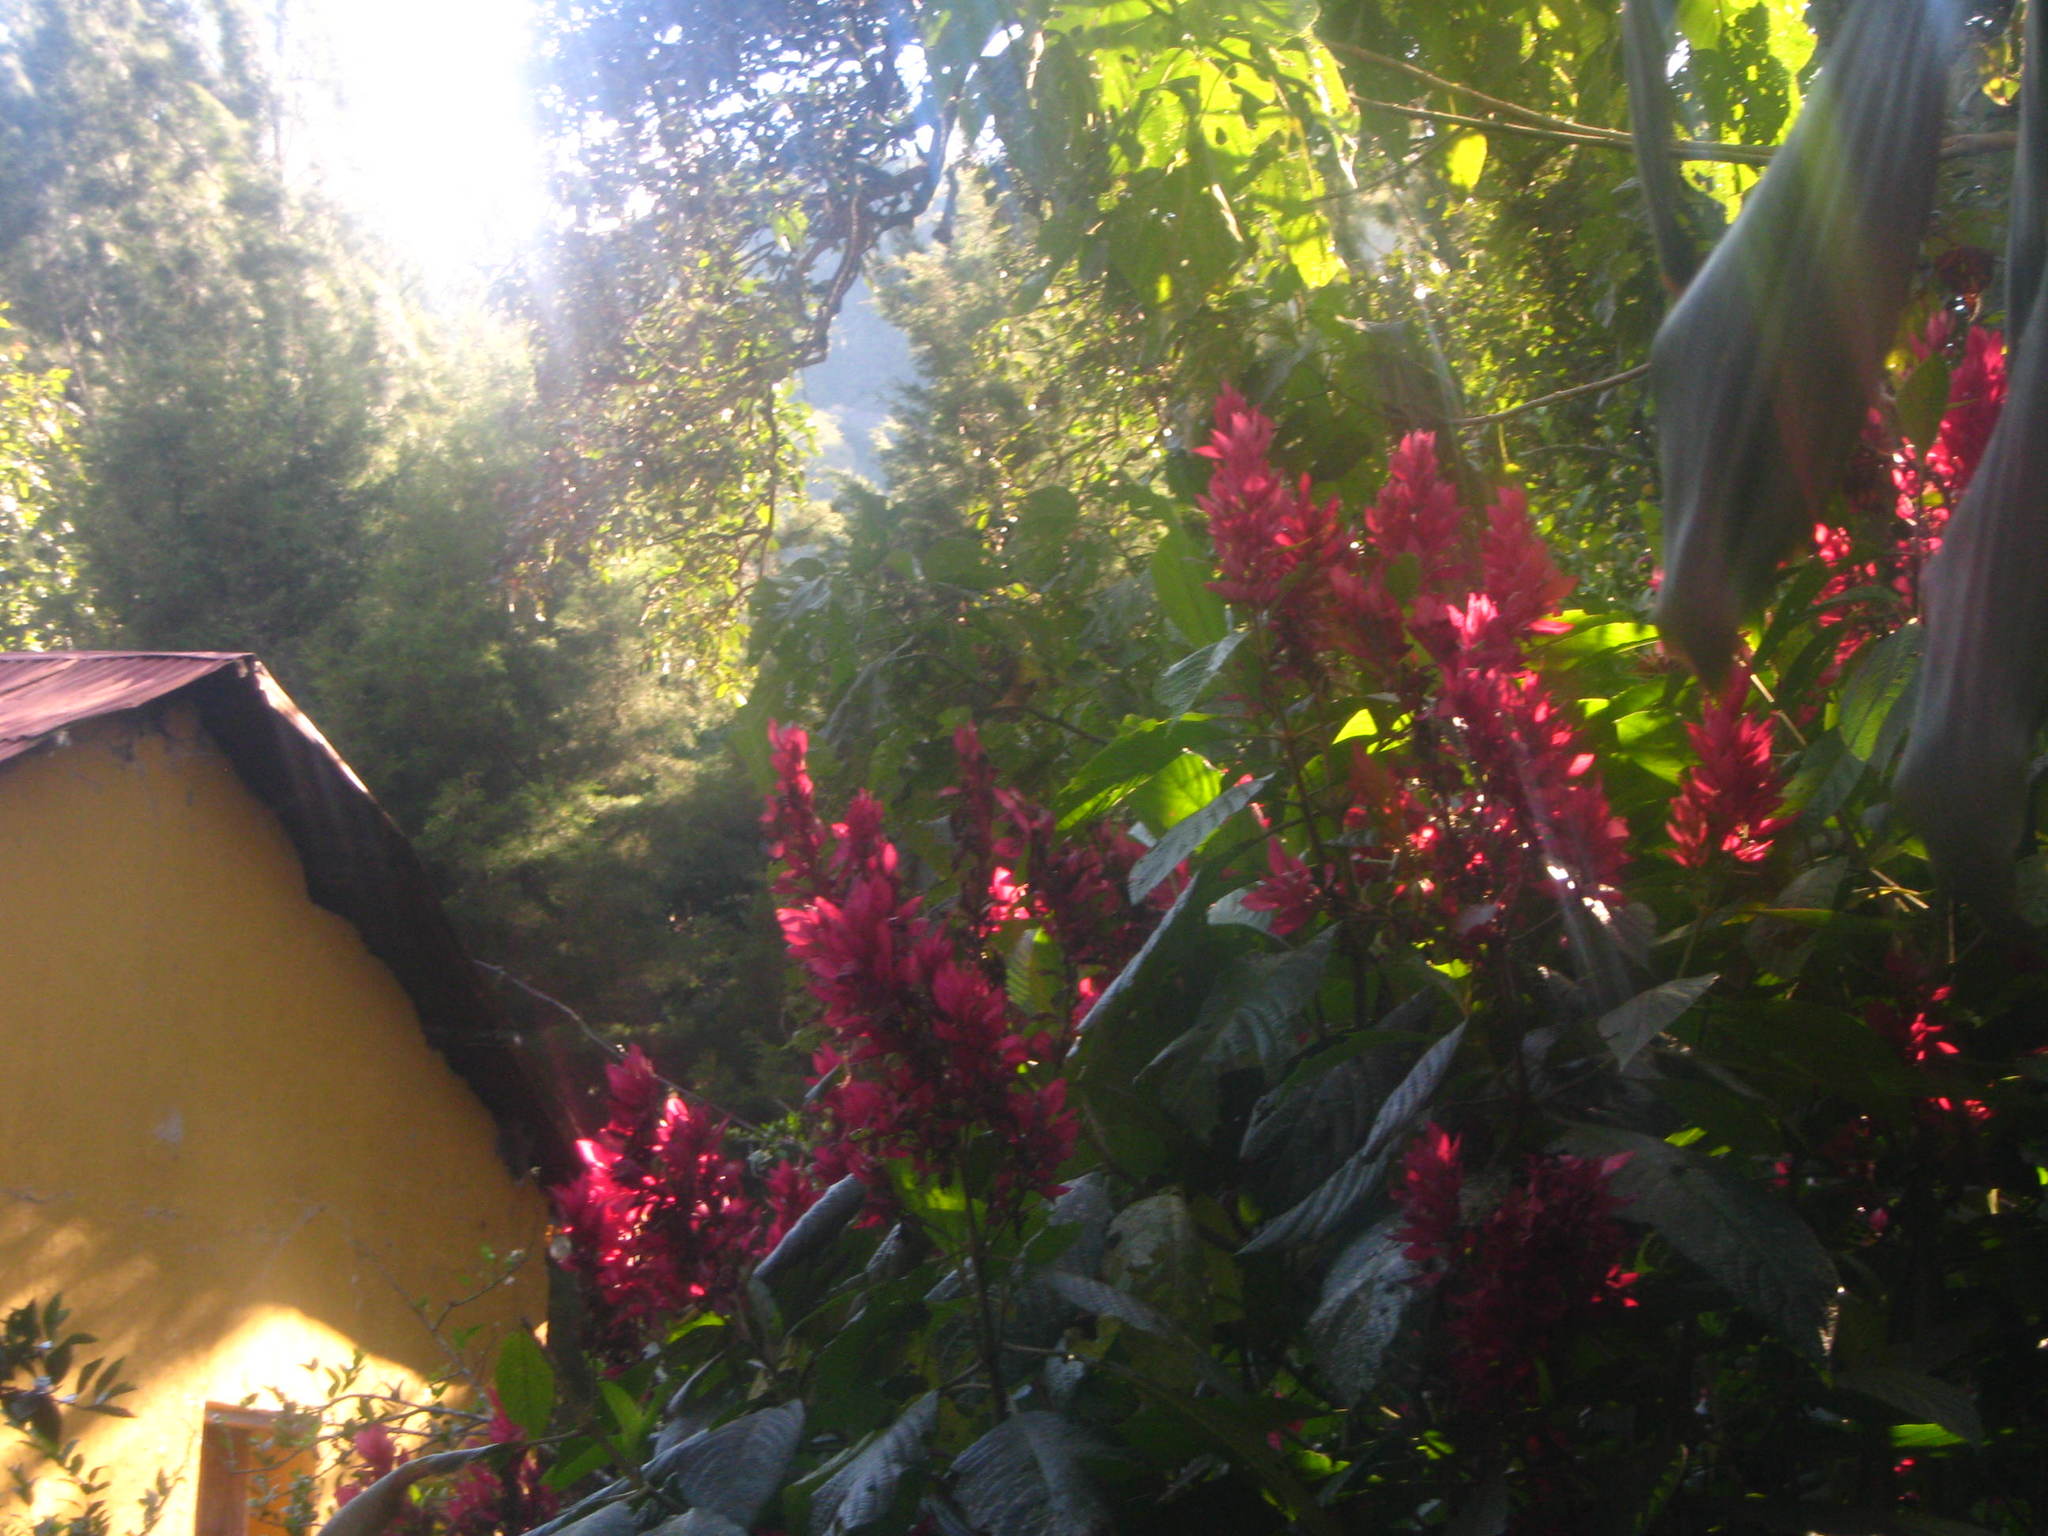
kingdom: Plantae
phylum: Tracheophyta
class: Magnoliopsida
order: Lamiales
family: Acanthaceae
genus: Megaskepasma
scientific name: Megaskepasma erythrochlamys
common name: Brazilian red-cloak
